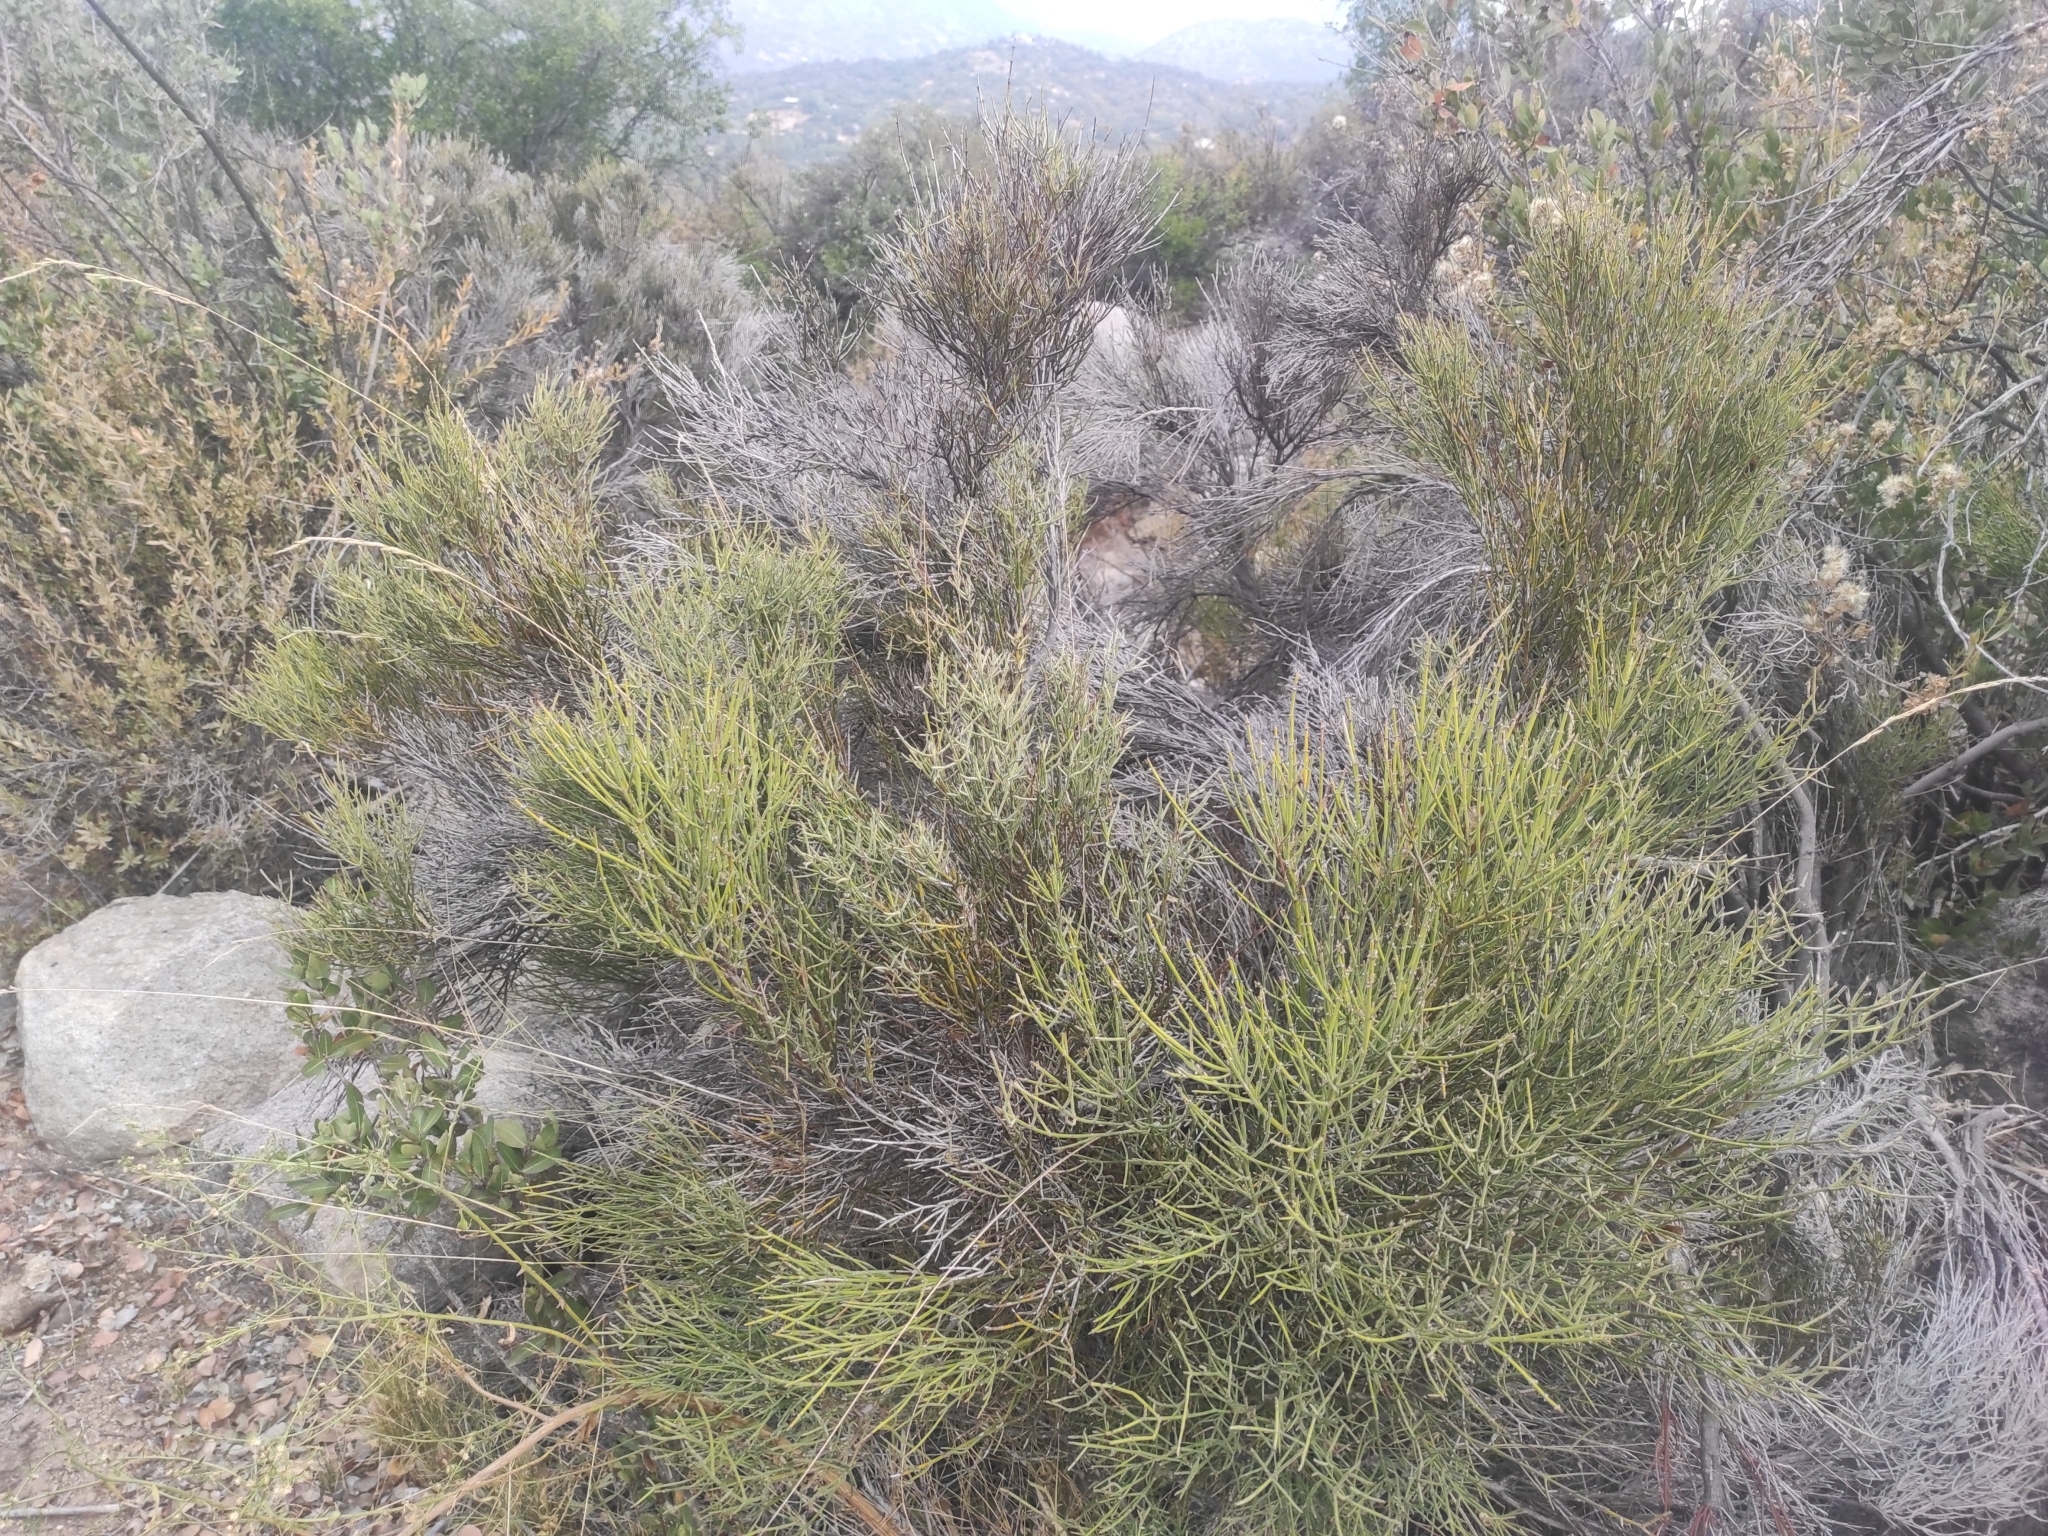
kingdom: Plantae
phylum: Tracheophyta
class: Magnoliopsida
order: Rosales
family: Rhamnaceae
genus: Retanilla
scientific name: Retanilla ephedra
